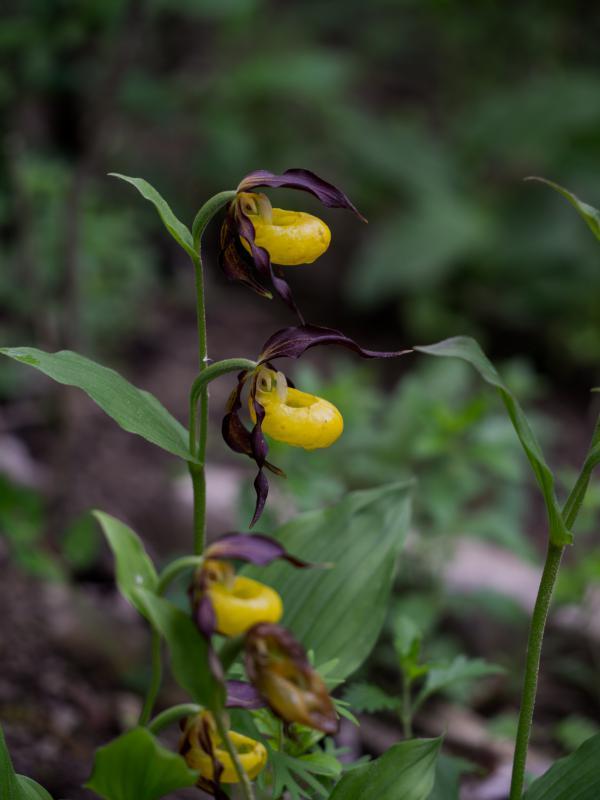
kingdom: Plantae
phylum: Tracheophyta
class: Liliopsida
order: Asparagales
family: Orchidaceae
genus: Cypripedium
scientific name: Cypripedium calceolus
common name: Lady's-slipper
